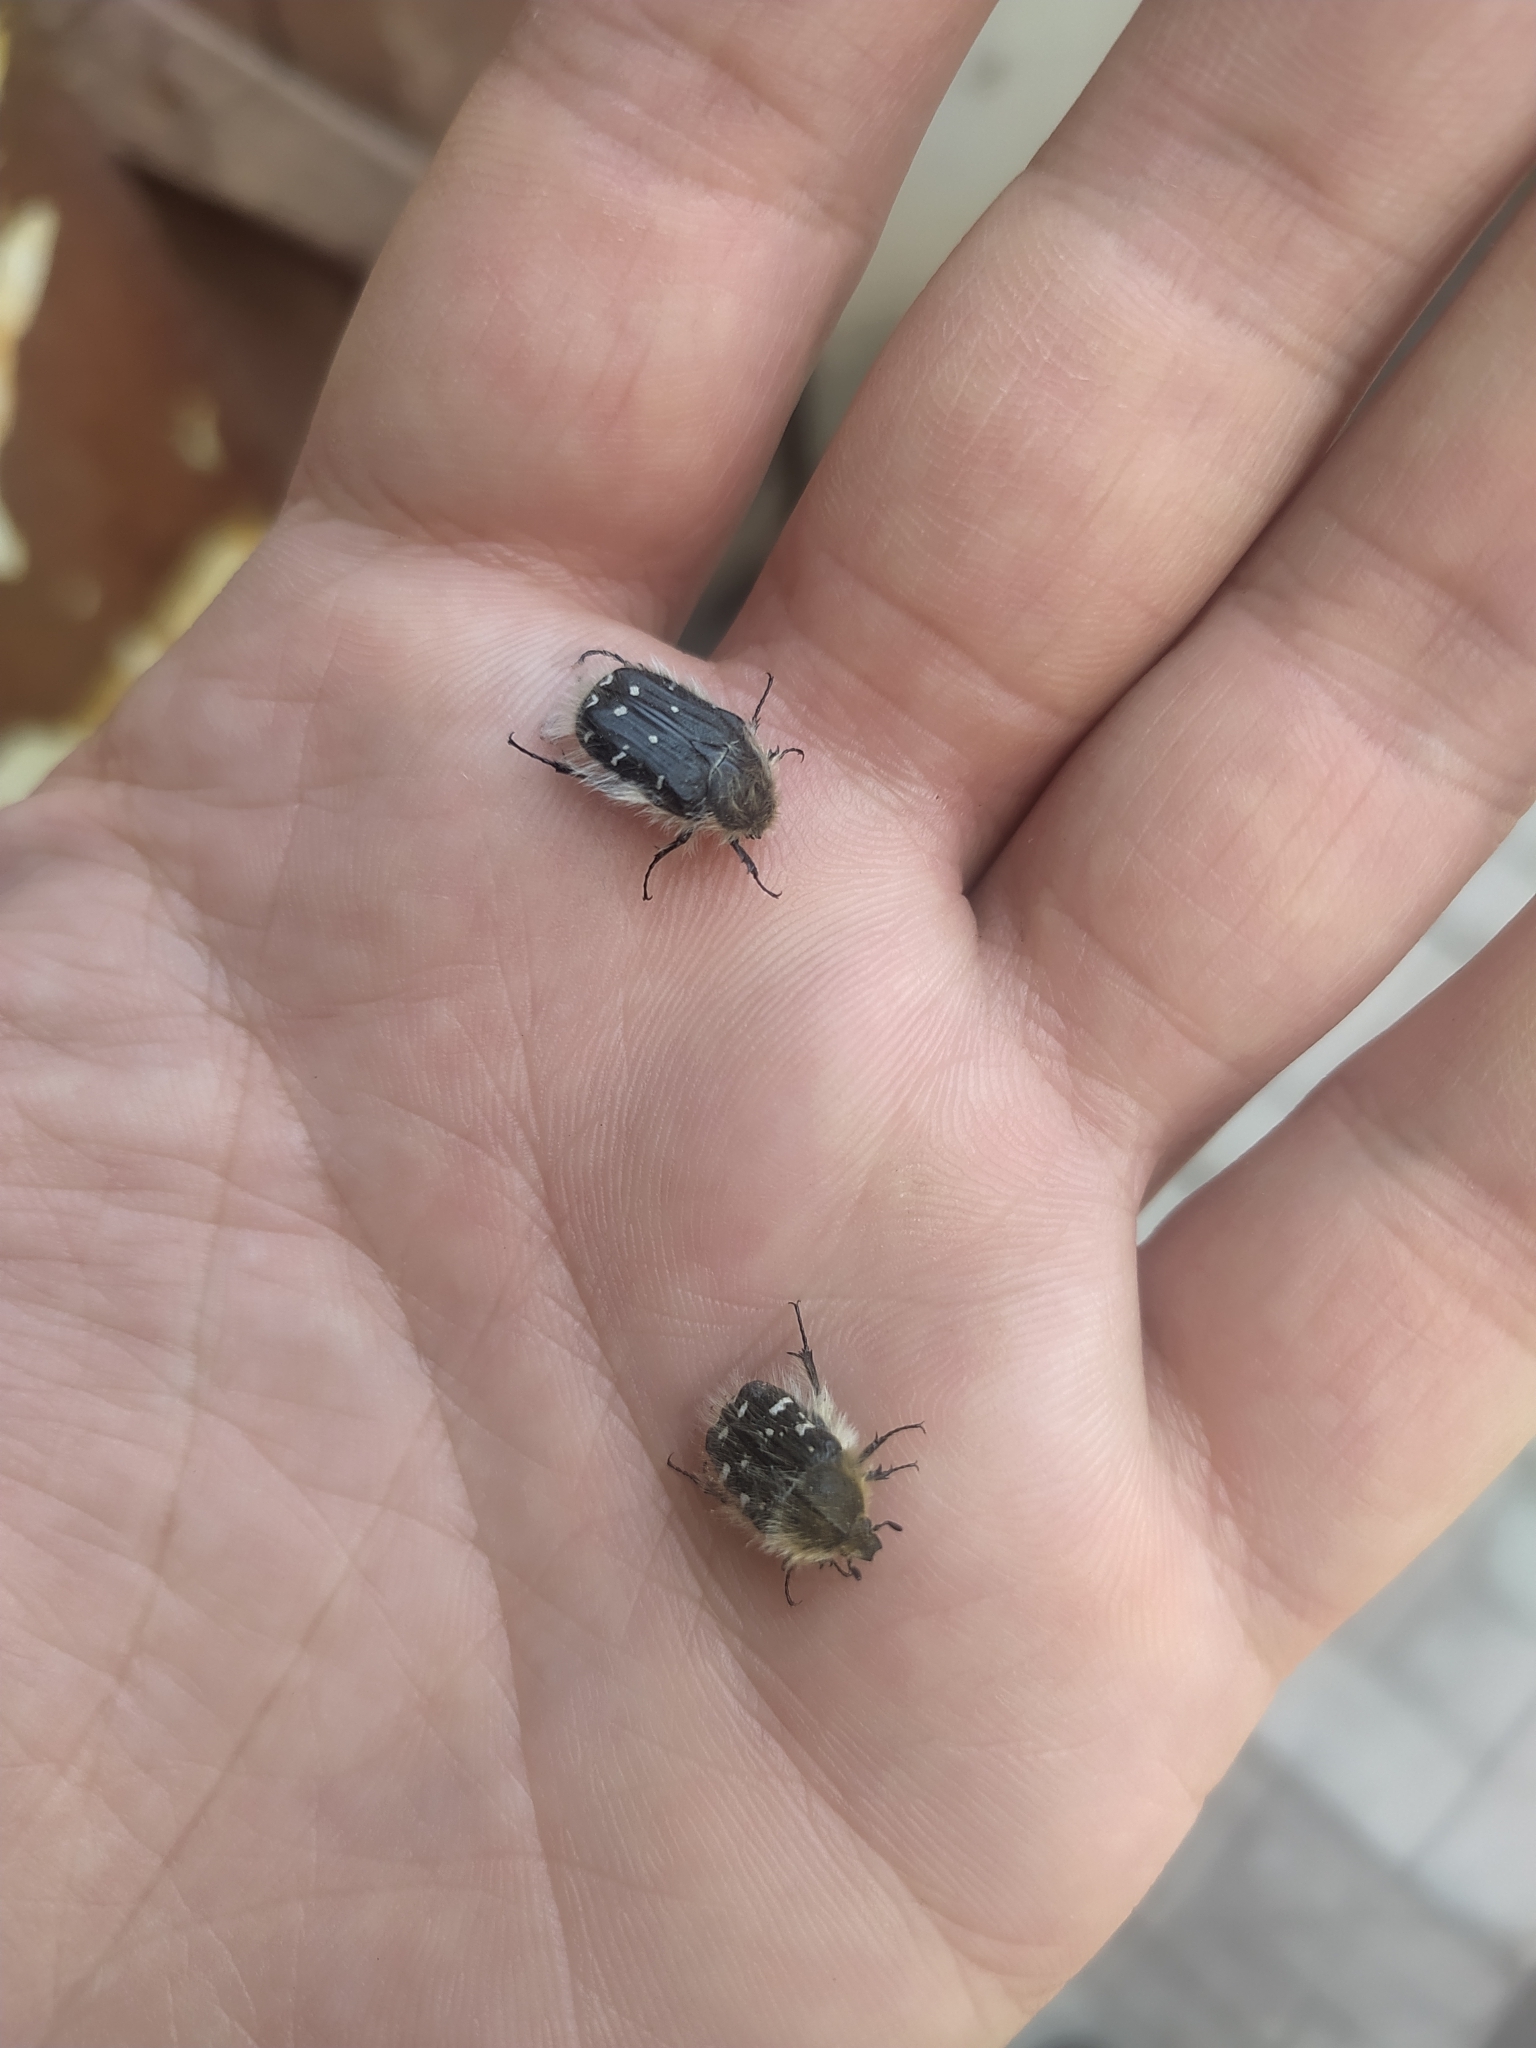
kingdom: Animalia
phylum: Arthropoda
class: Insecta
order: Coleoptera
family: Scarabaeidae
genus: Tropinota
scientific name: Tropinota hirta
